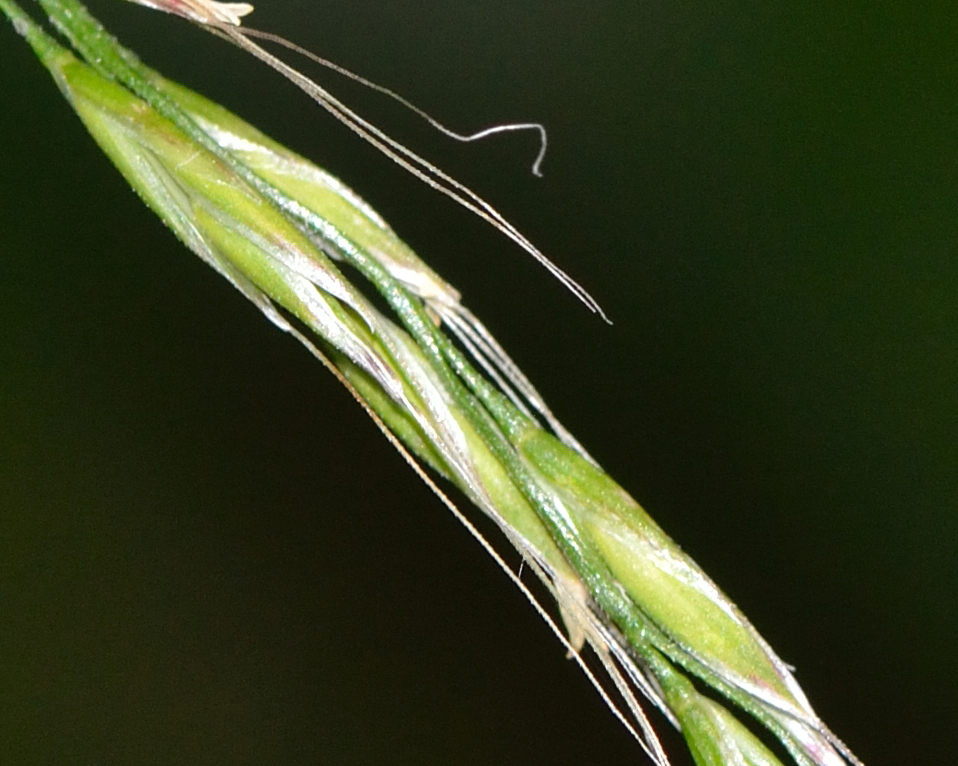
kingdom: Plantae
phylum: Tracheophyta
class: Liliopsida
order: Poales
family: Poaceae
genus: Lolium
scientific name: Lolium giganteum
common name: Giant fescue
